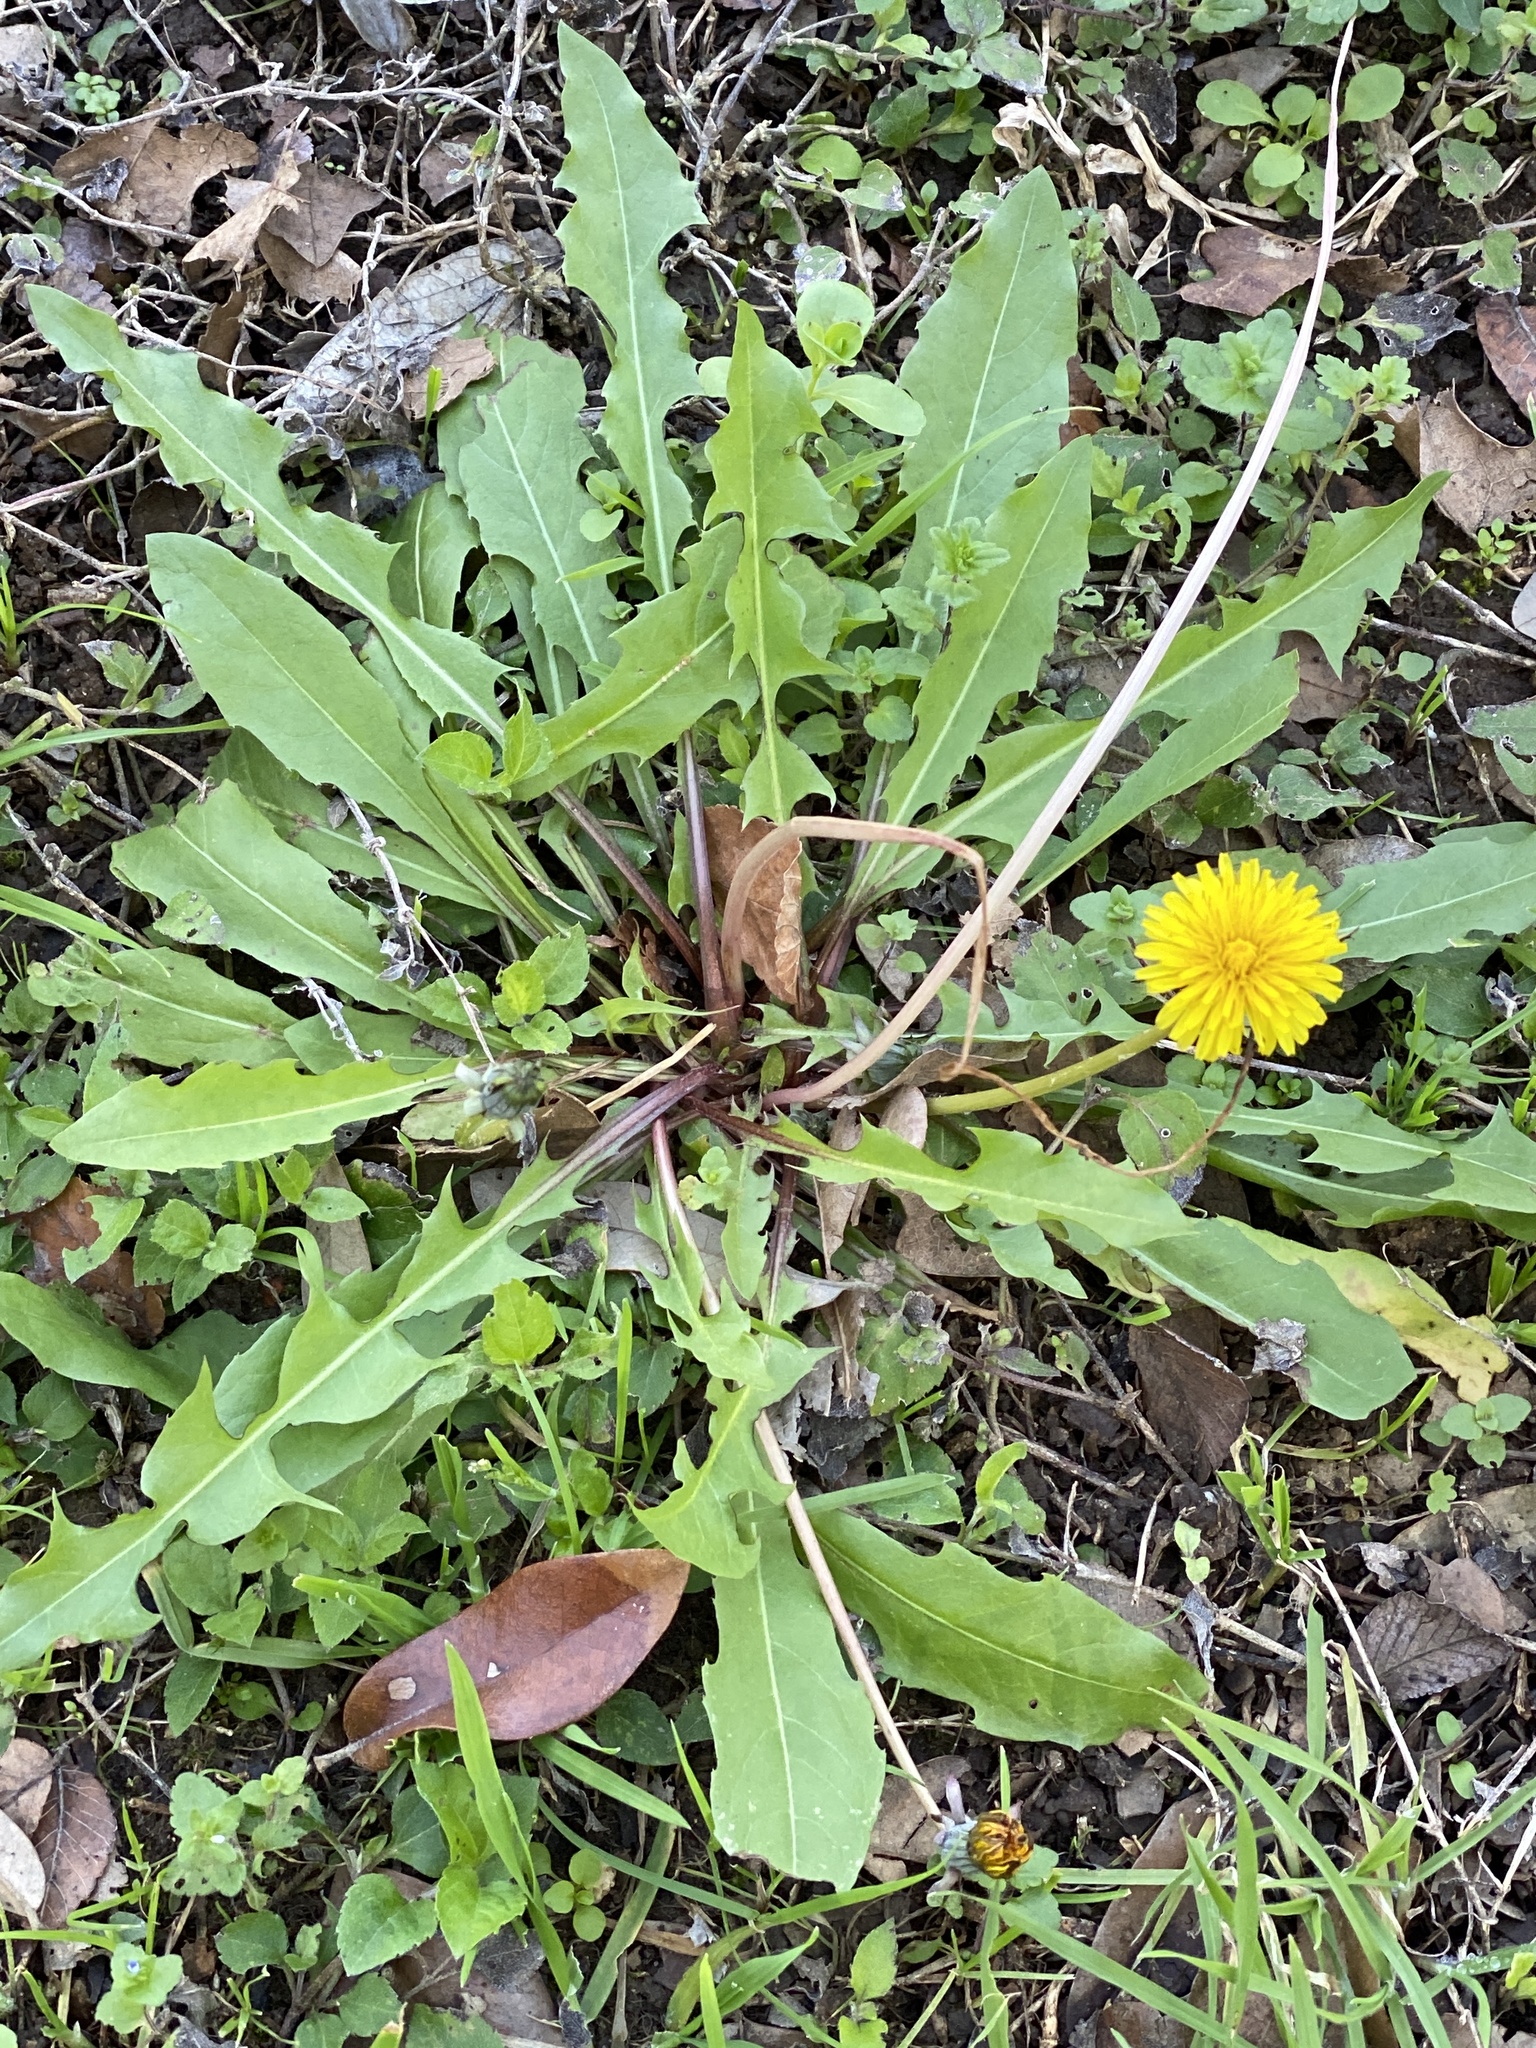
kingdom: Plantae
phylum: Tracheophyta
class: Magnoliopsida
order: Asterales
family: Asteraceae
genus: Taraxacum
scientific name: Taraxacum officinale
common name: Common dandelion
